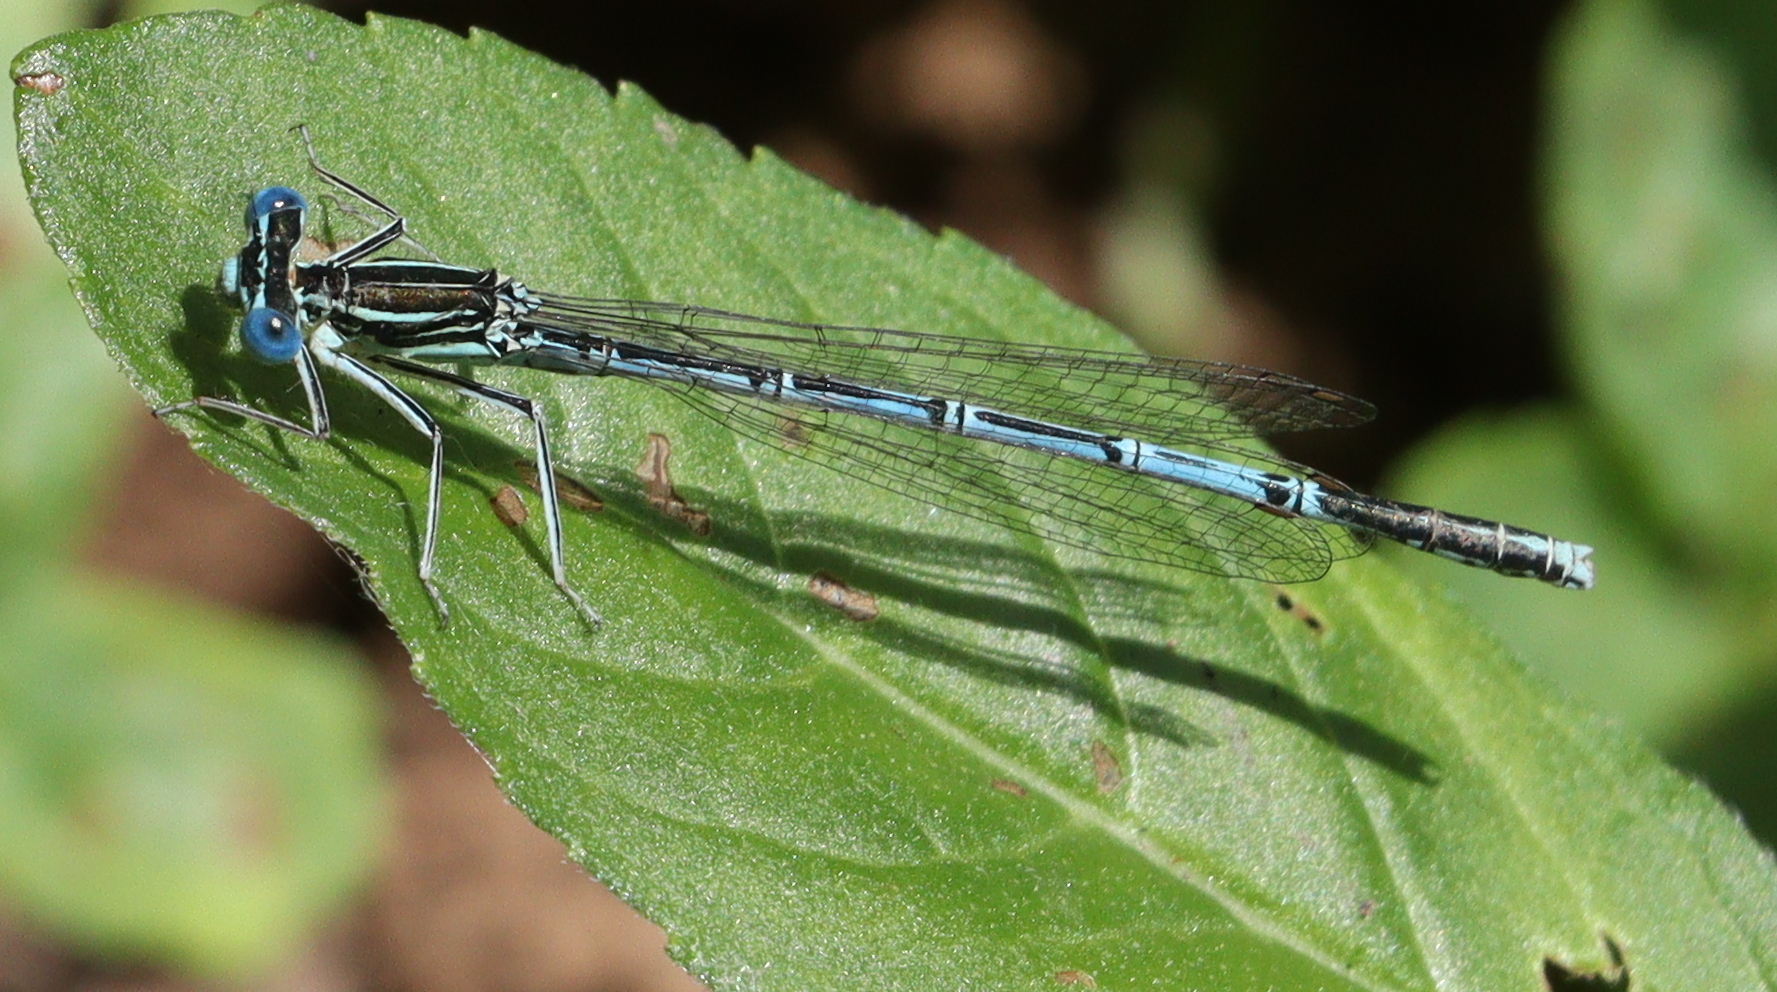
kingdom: Animalia
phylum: Arthropoda
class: Insecta
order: Odonata
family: Platycnemididae
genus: Platycnemis
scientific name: Platycnemis pennipes
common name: White-legged damselfly
